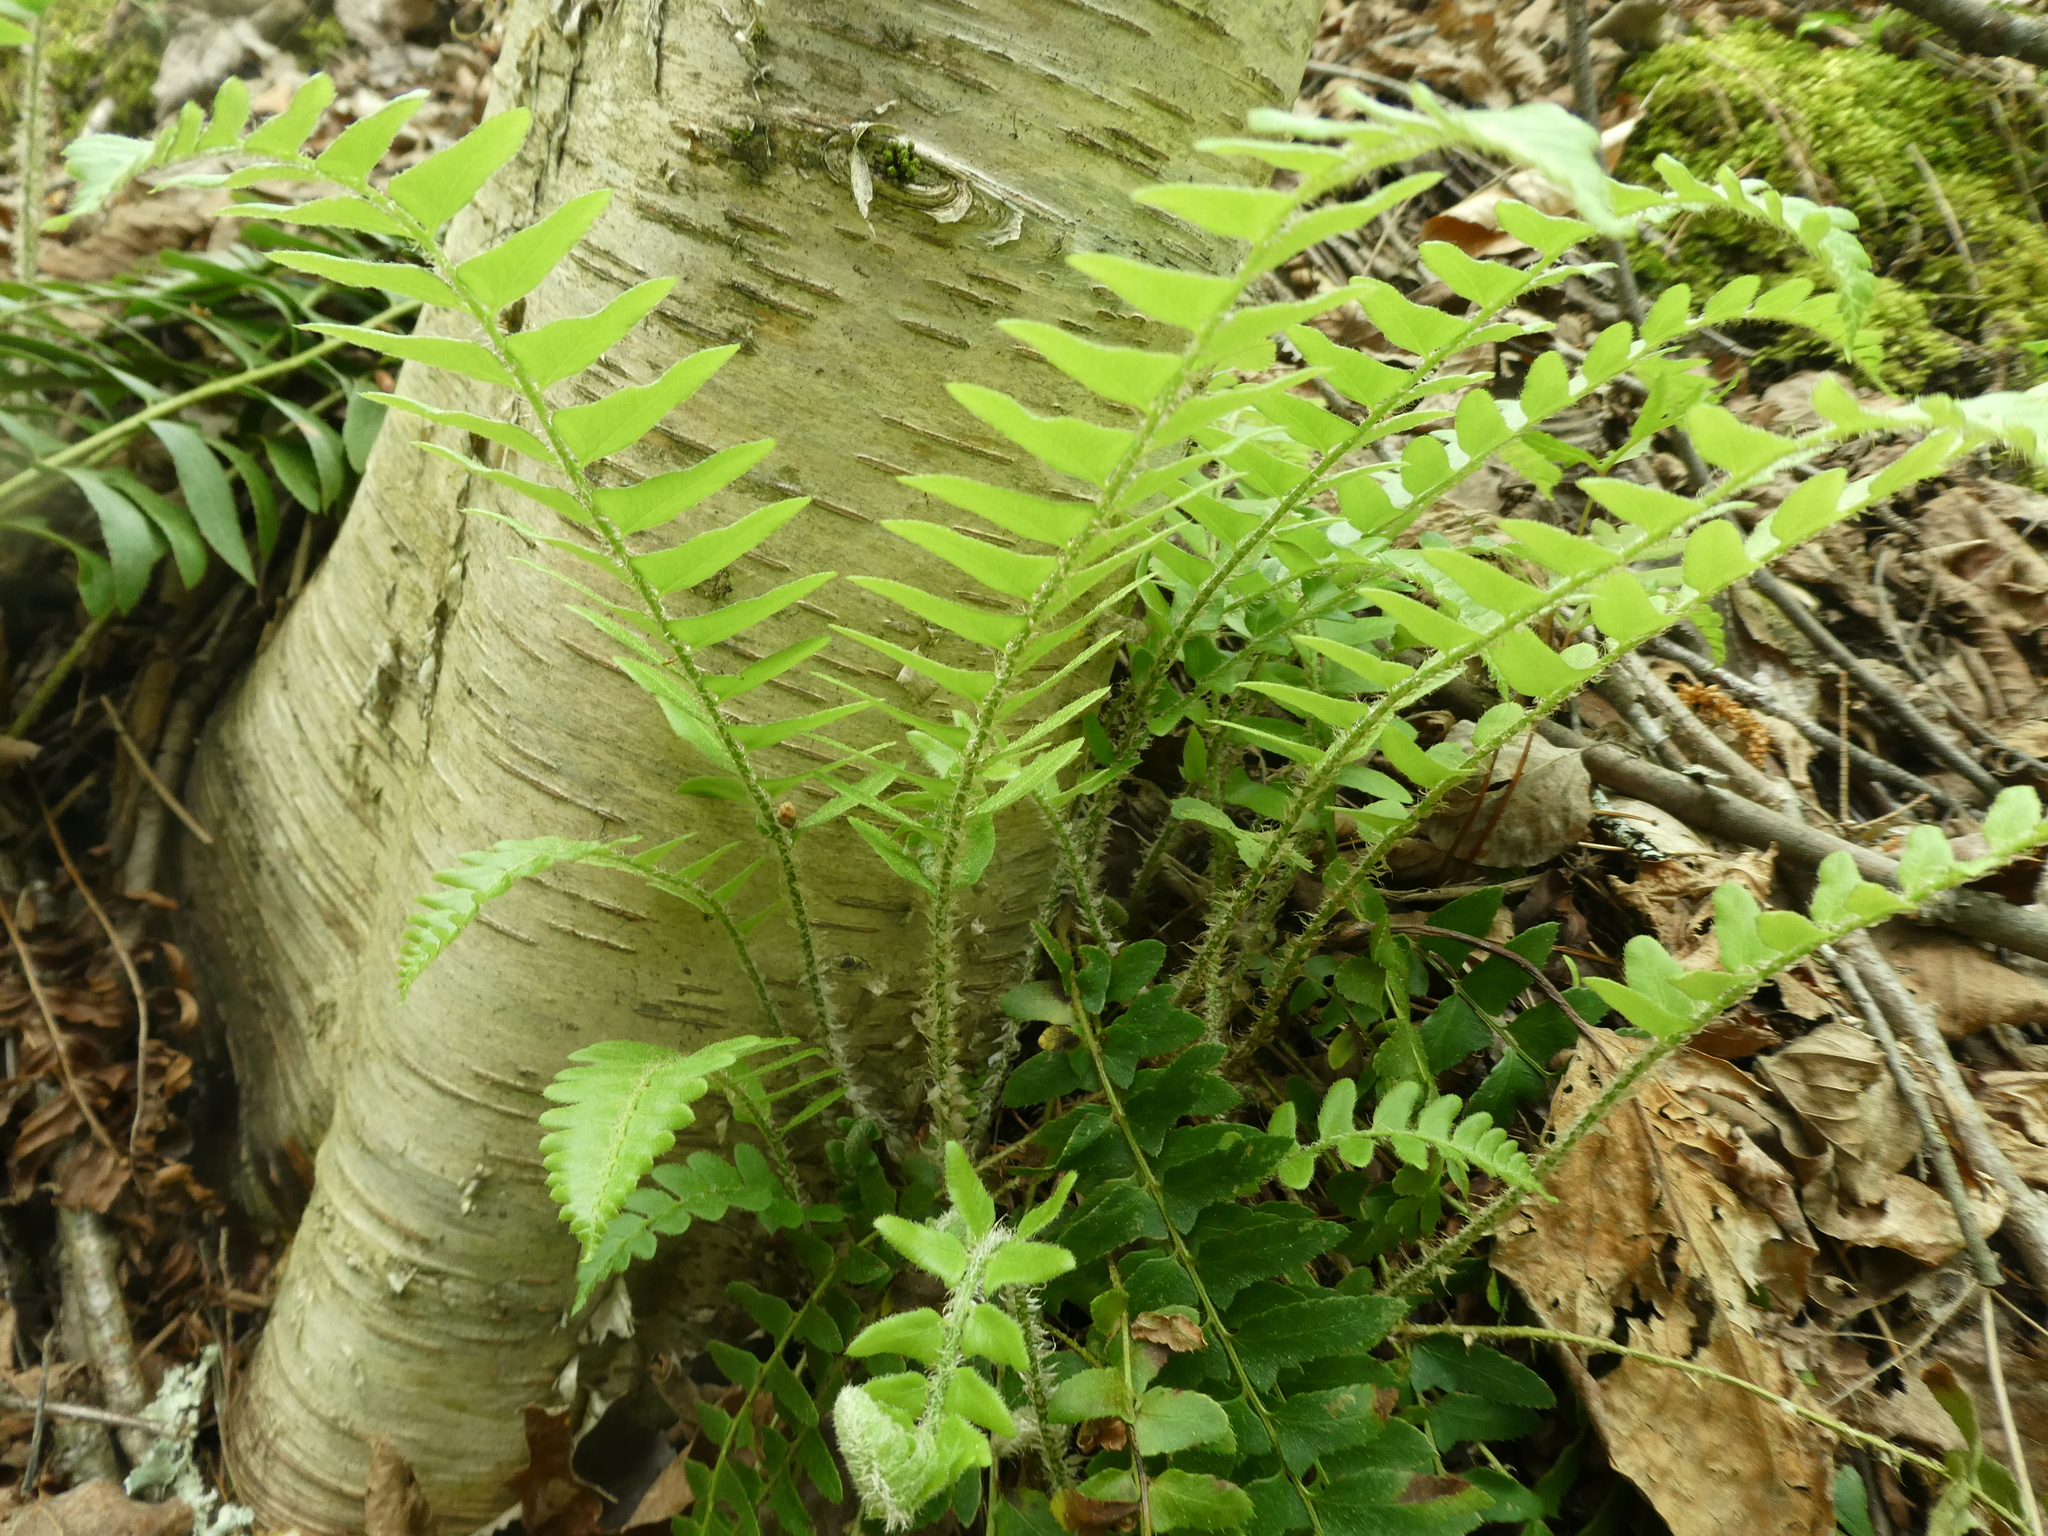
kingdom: Plantae
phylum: Tracheophyta
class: Polypodiopsida
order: Polypodiales
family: Dryopteridaceae
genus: Polystichum
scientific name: Polystichum acrostichoides
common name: Christmas fern
